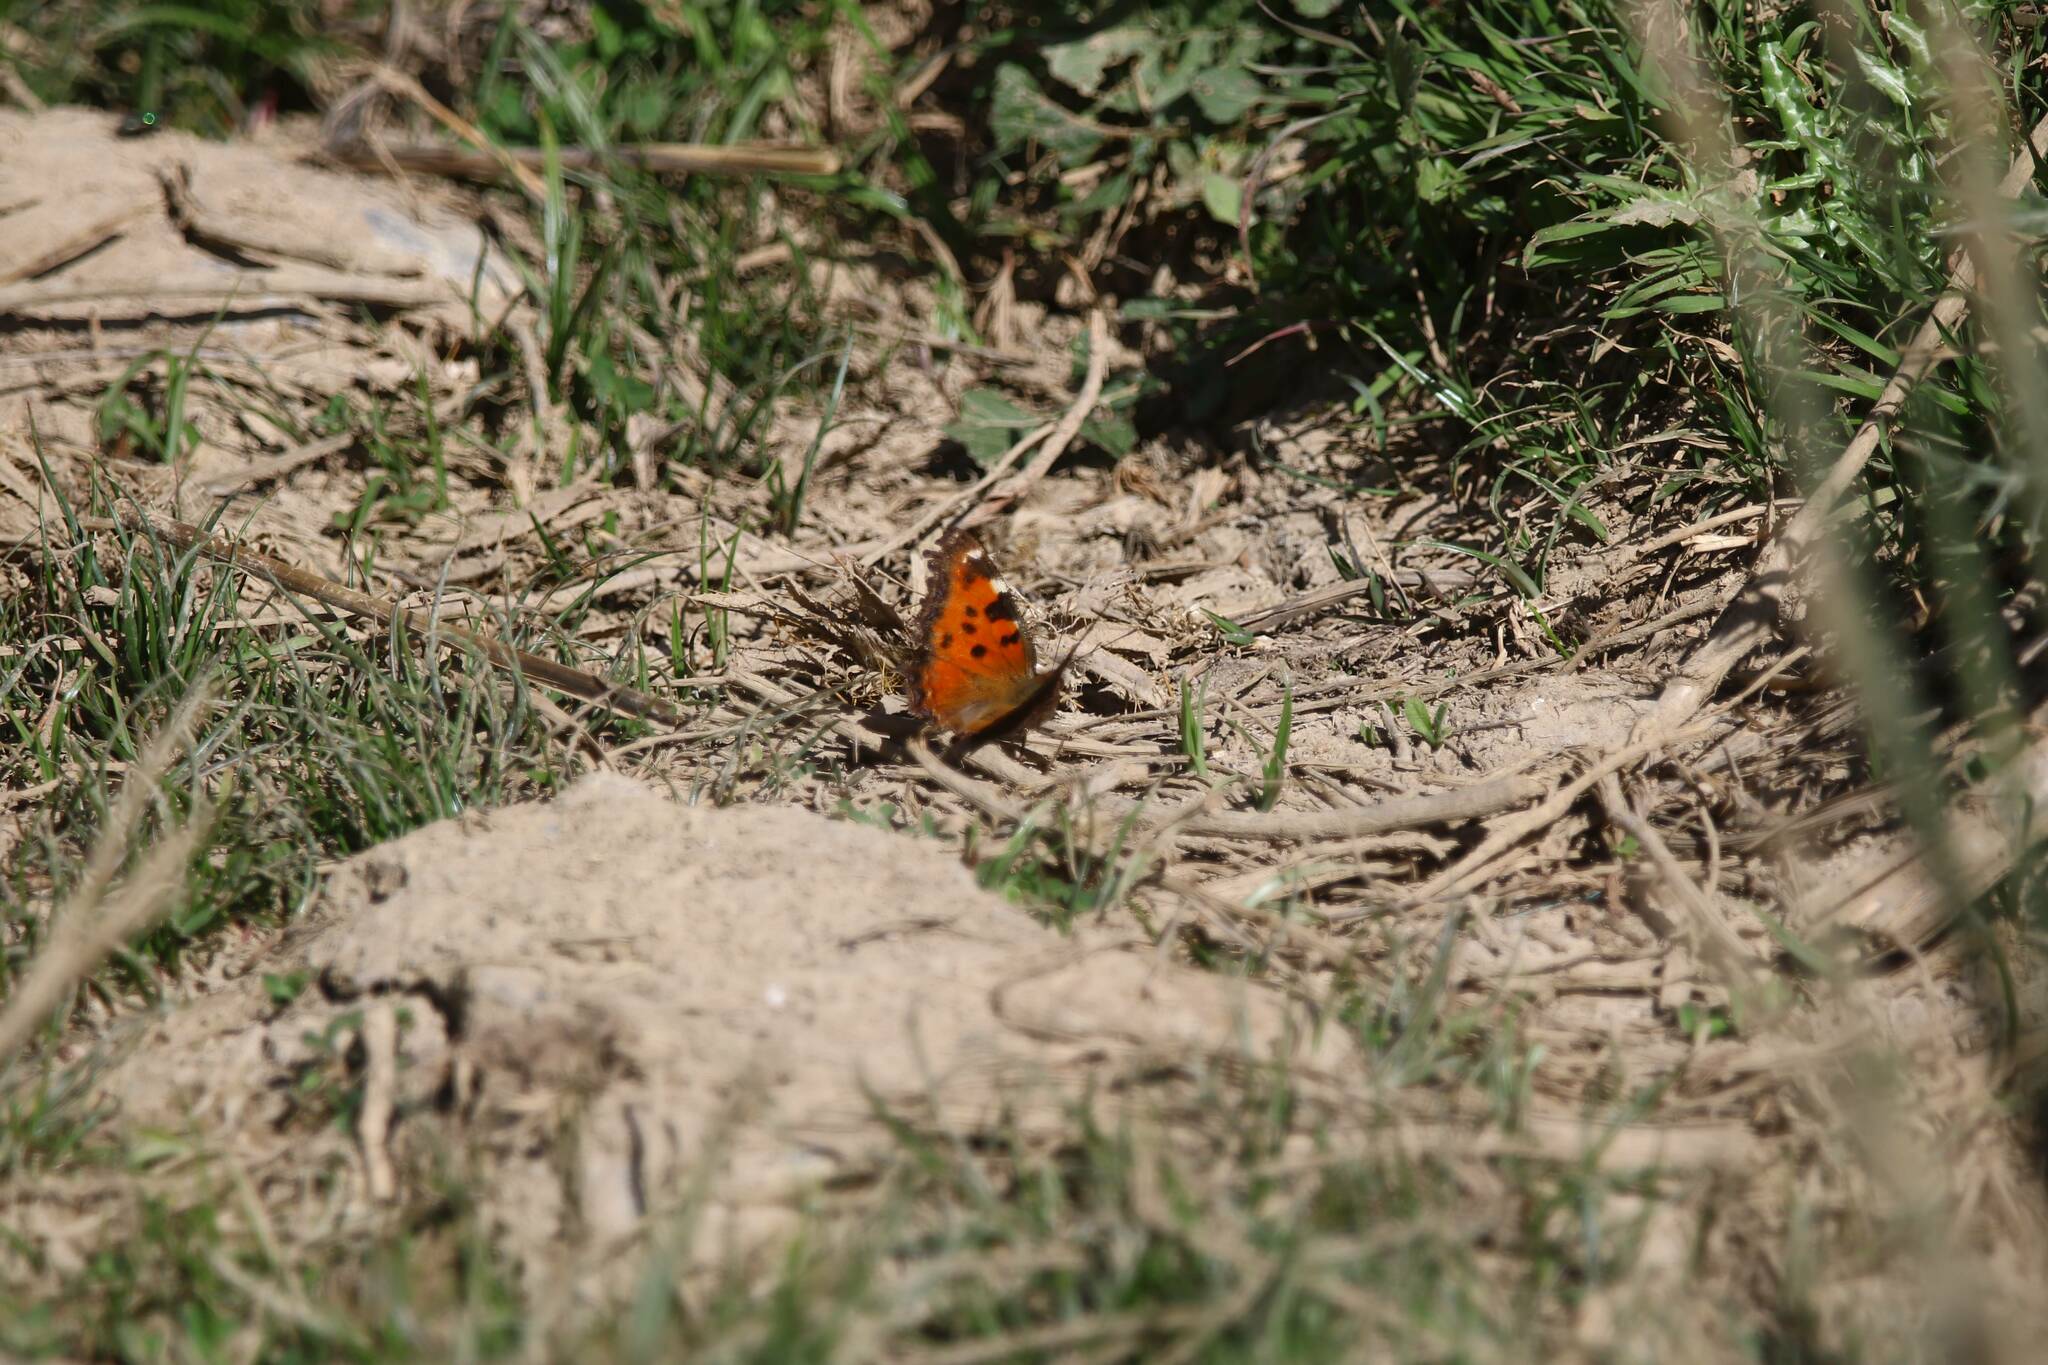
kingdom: Animalia
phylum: Arthropoda
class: Insecta
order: Lepidoptera
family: Nymphalidae
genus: Nymphalis
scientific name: Nymphalis polychloros
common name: Large tortoiseshell
